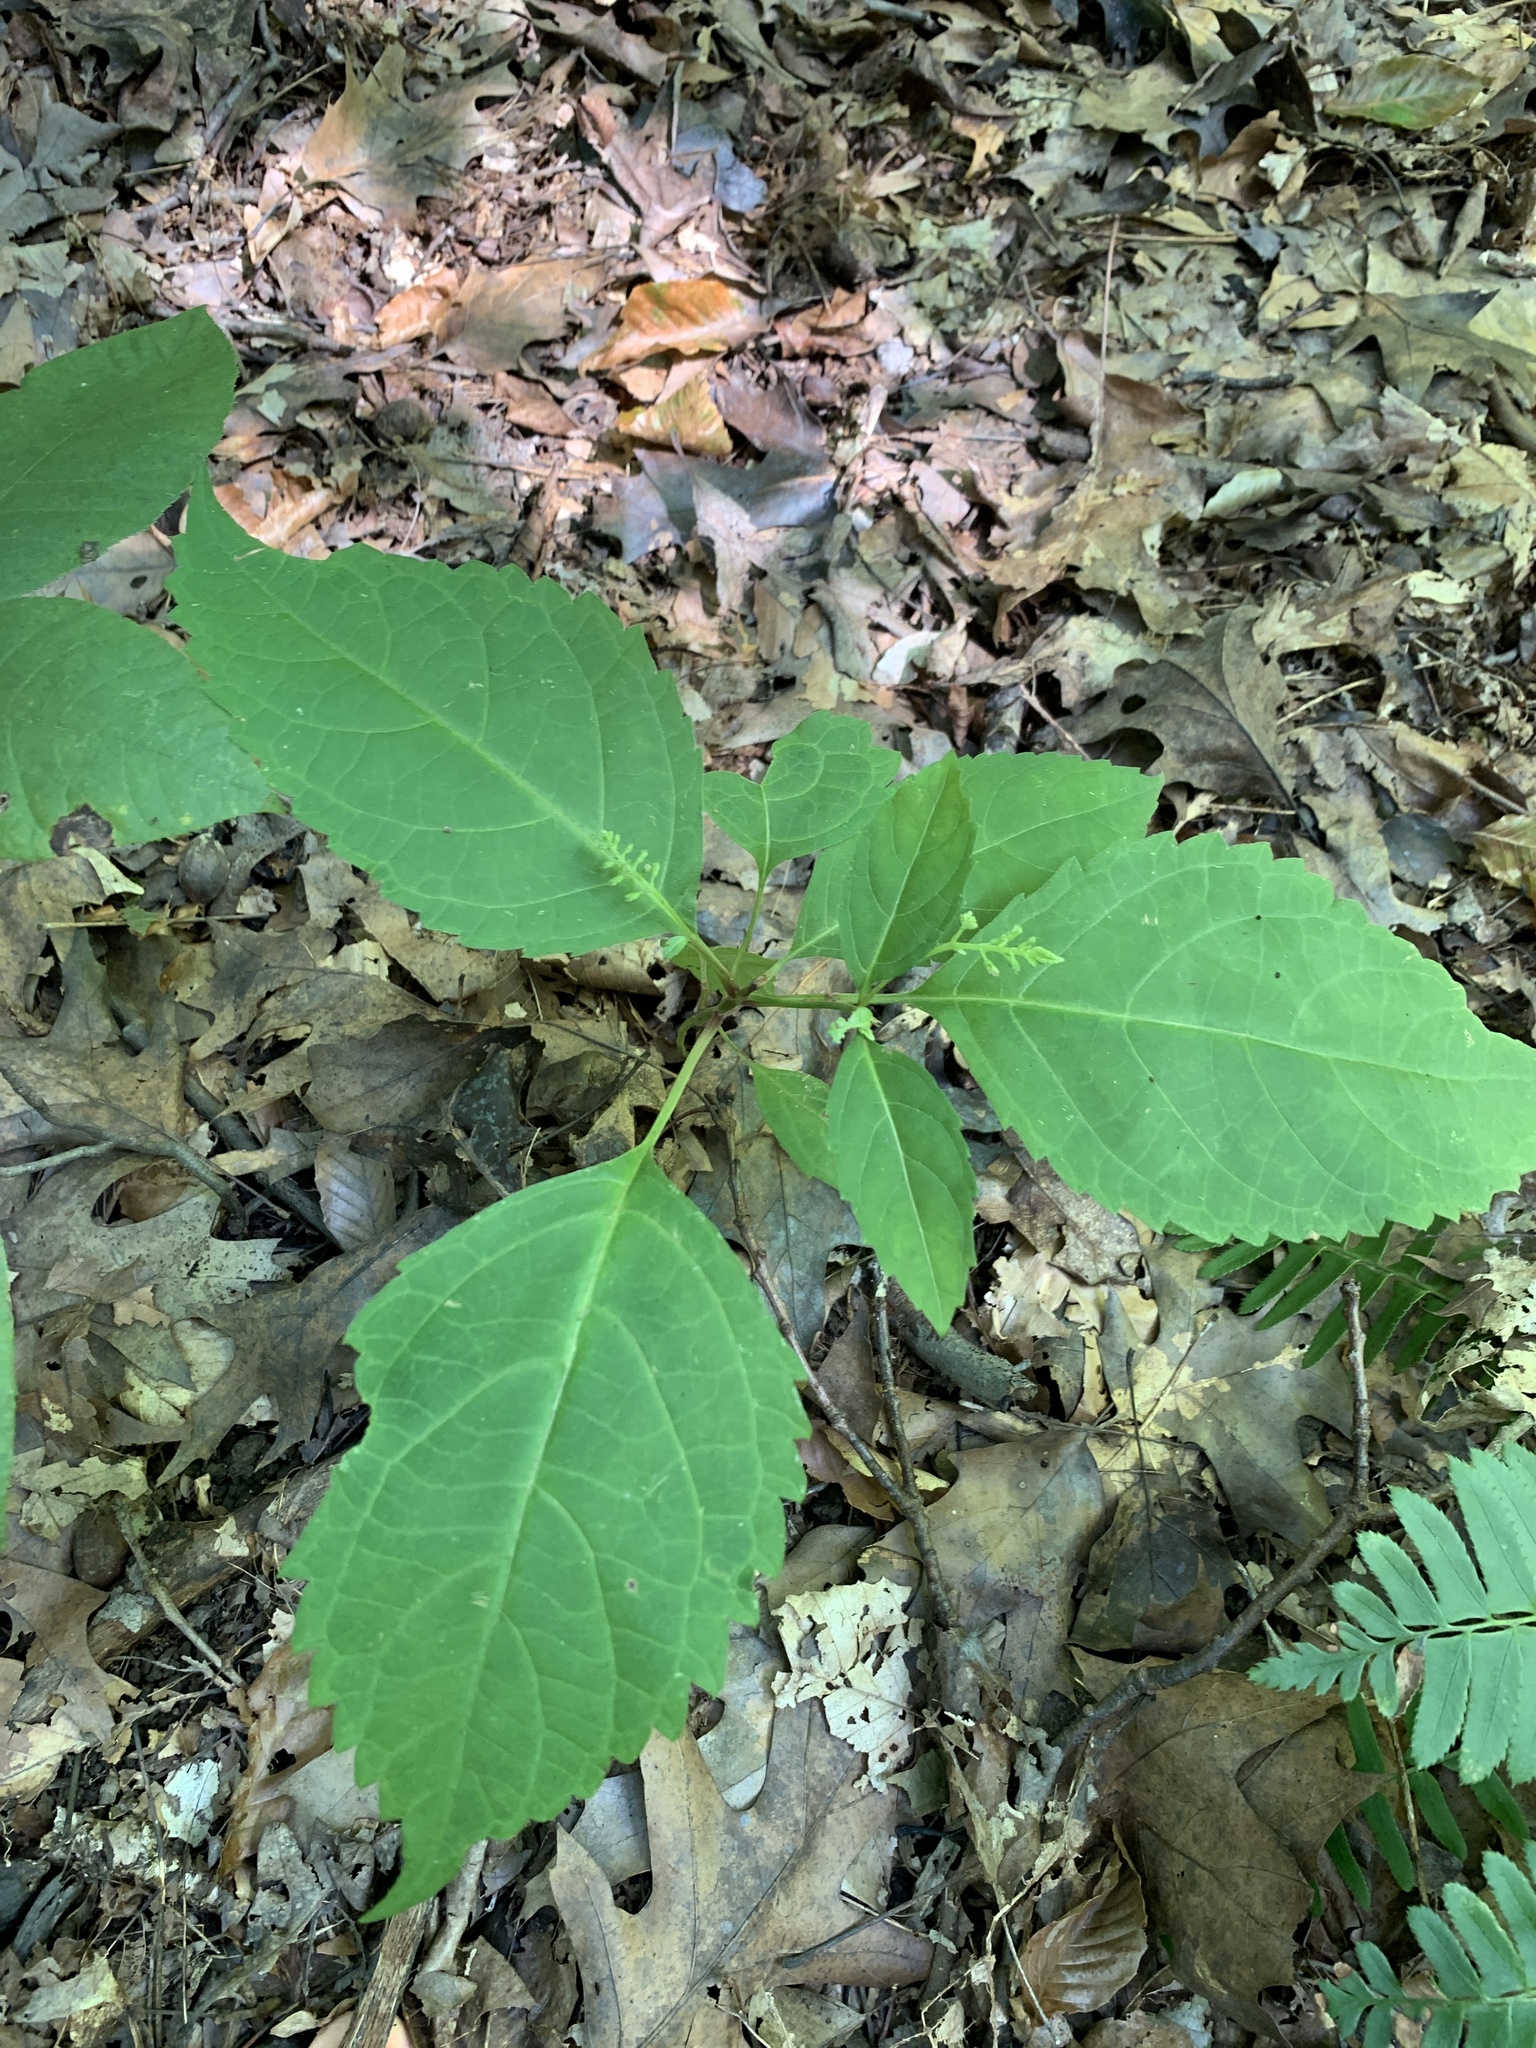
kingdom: Plantae
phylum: Tracheophyta
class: Magnoliopsida
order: Lamiales
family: Lamiaceae
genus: Collinsonia
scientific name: Collinsonia canadensis
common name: Northern horsebalm
